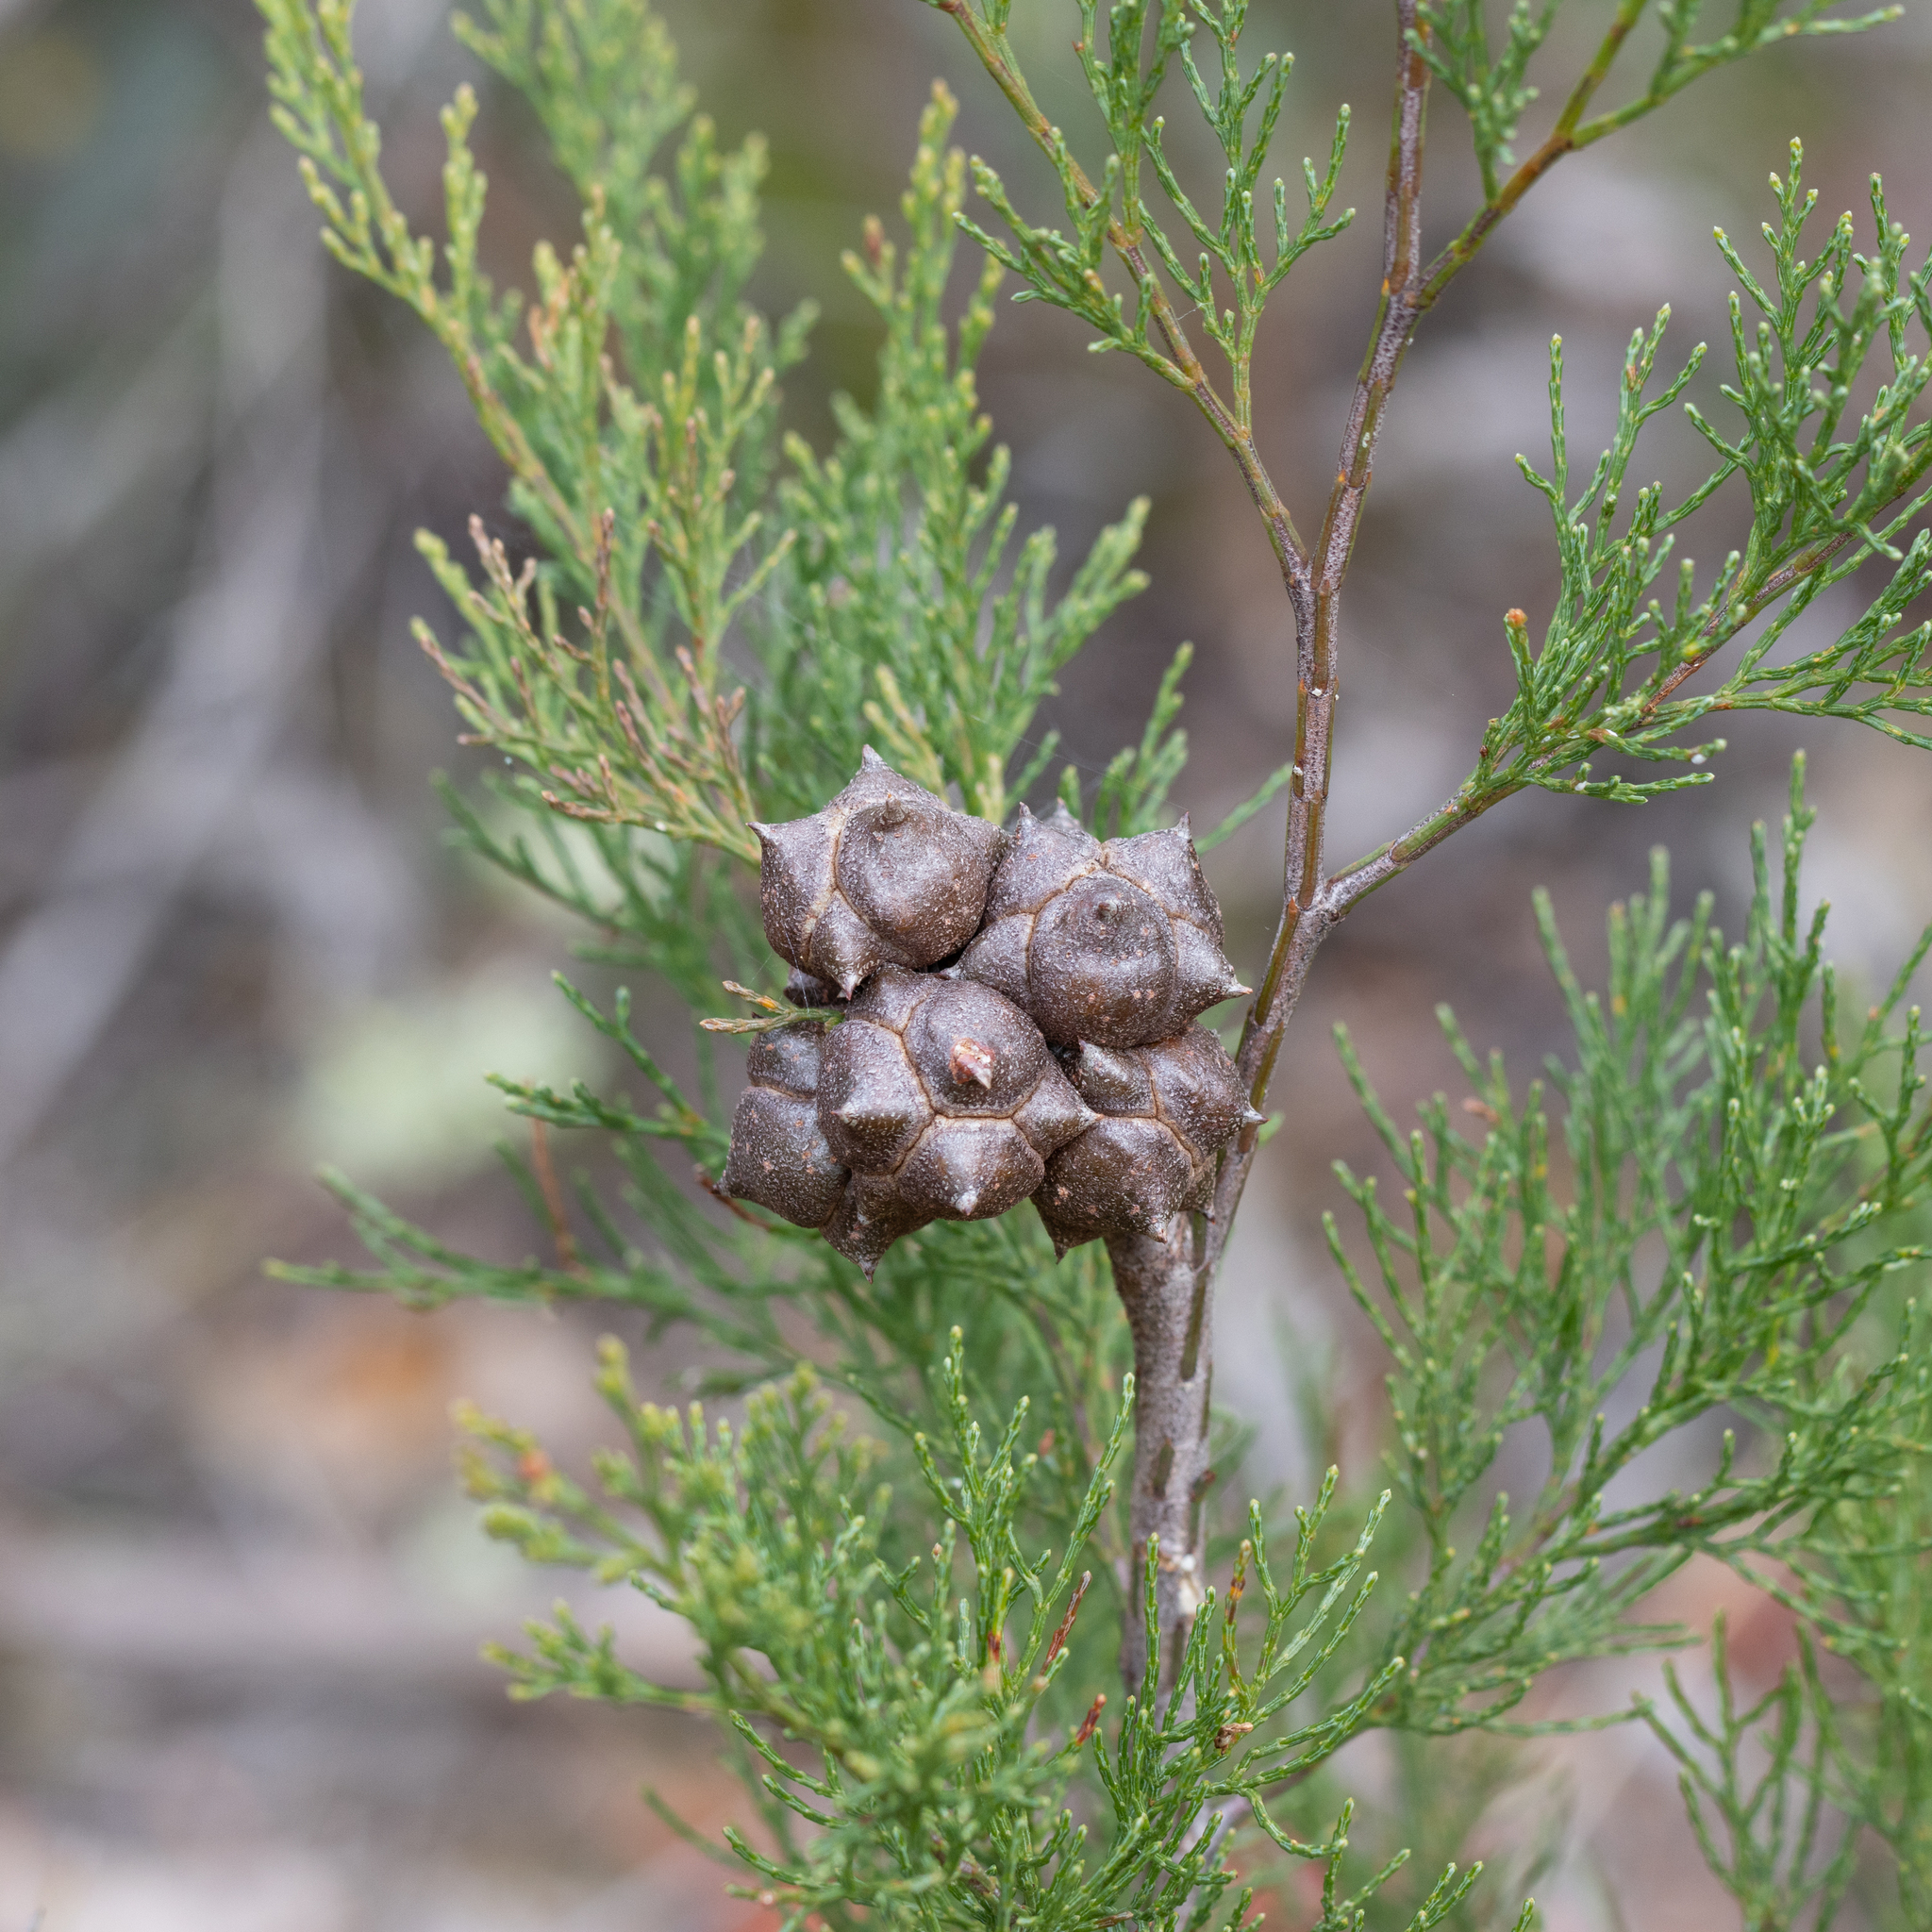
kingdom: Plantae
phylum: Tracheophyta
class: Pinopsida
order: Pinales
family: Cupressaceae
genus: Callitris
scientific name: Callitris rhomboidea
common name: Illawara mountain pine
